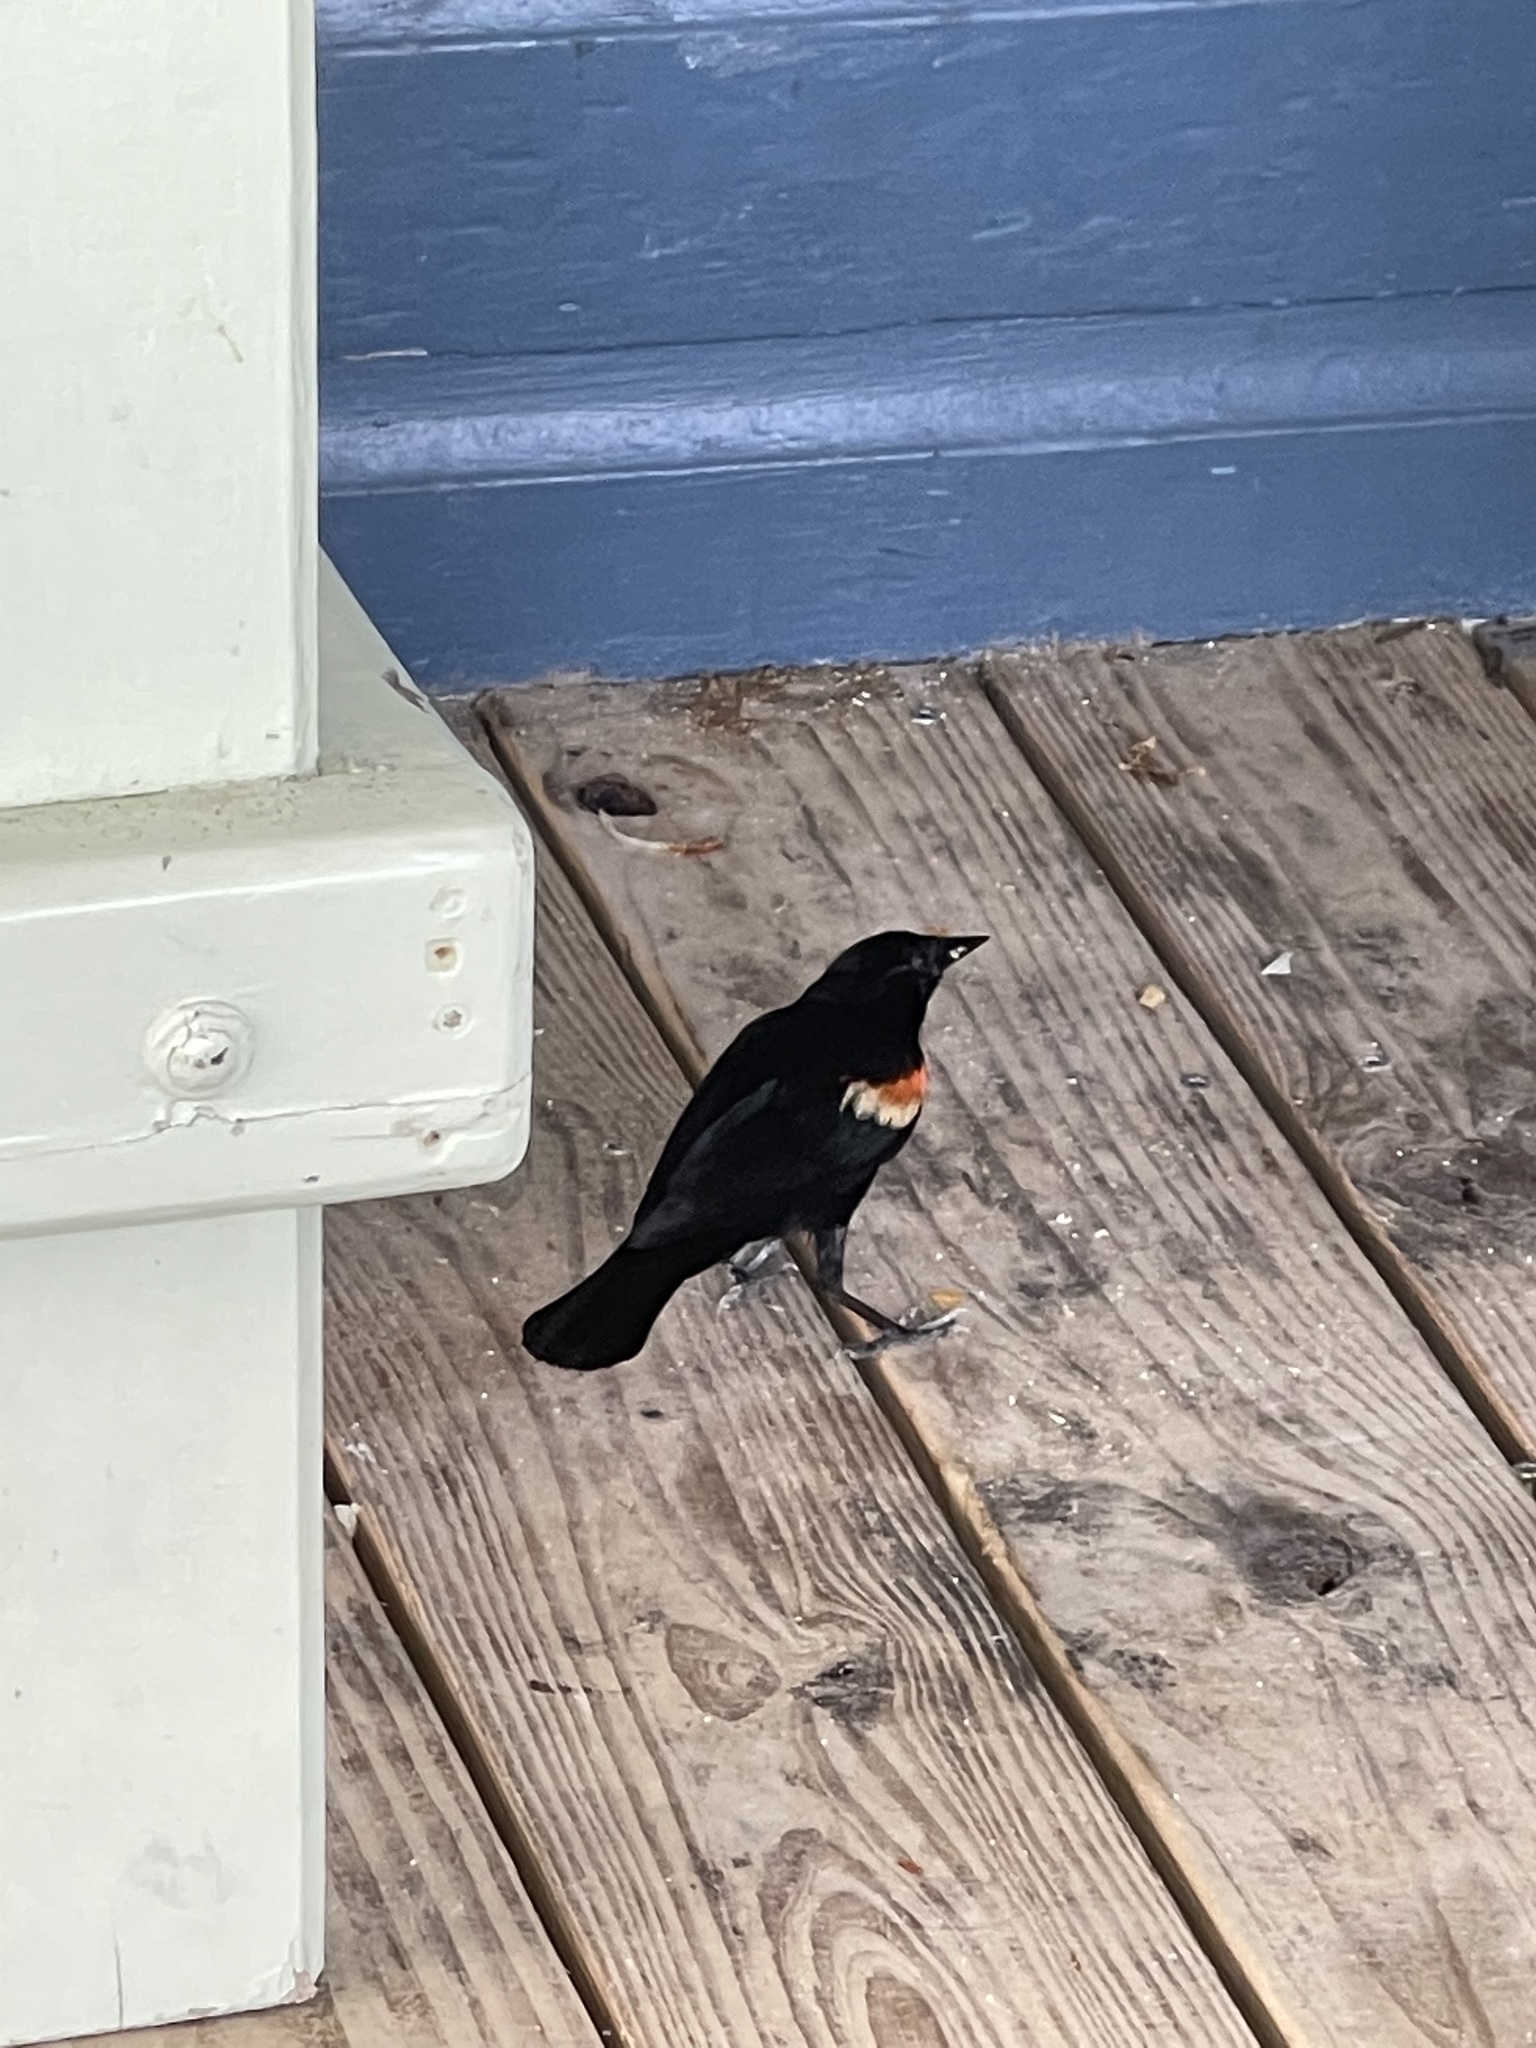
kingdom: Animalia
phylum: Chordata
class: Aves
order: Passeriformes
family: Icteridae
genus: Agelaius
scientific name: Agelaius phoeniceus
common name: Red-winged blackbird
